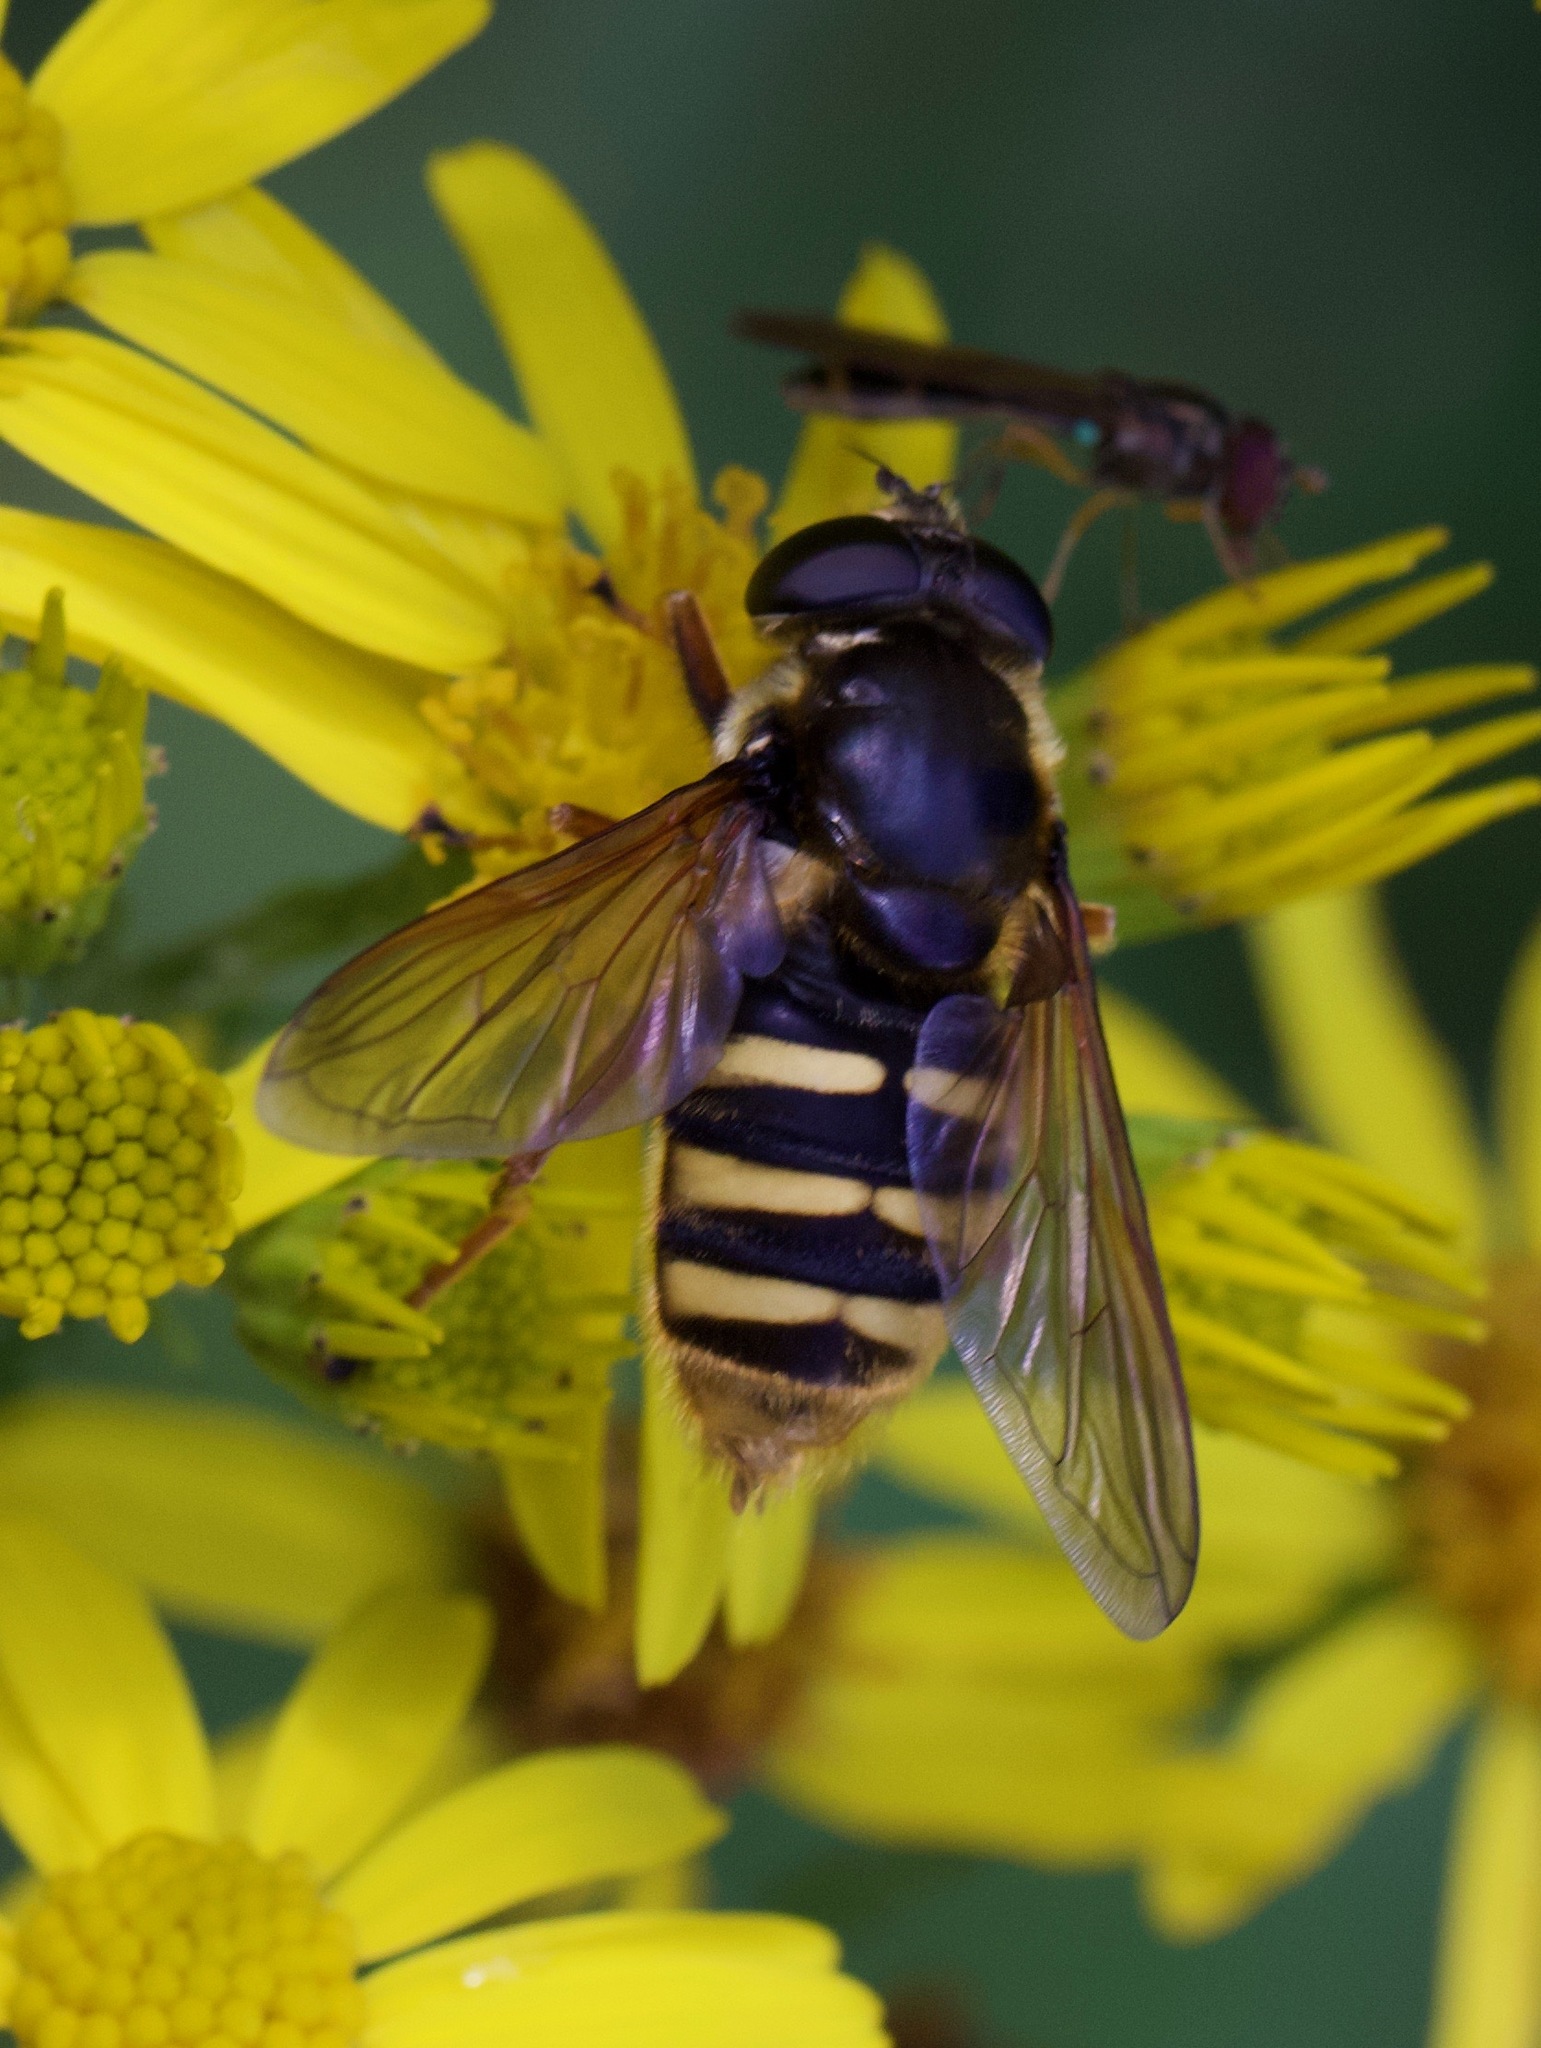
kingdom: Animalia
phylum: Arthropoda
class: Insecta
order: Diptera
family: Syrphidae
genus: Sericomyia
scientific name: Sericomyia silentis
